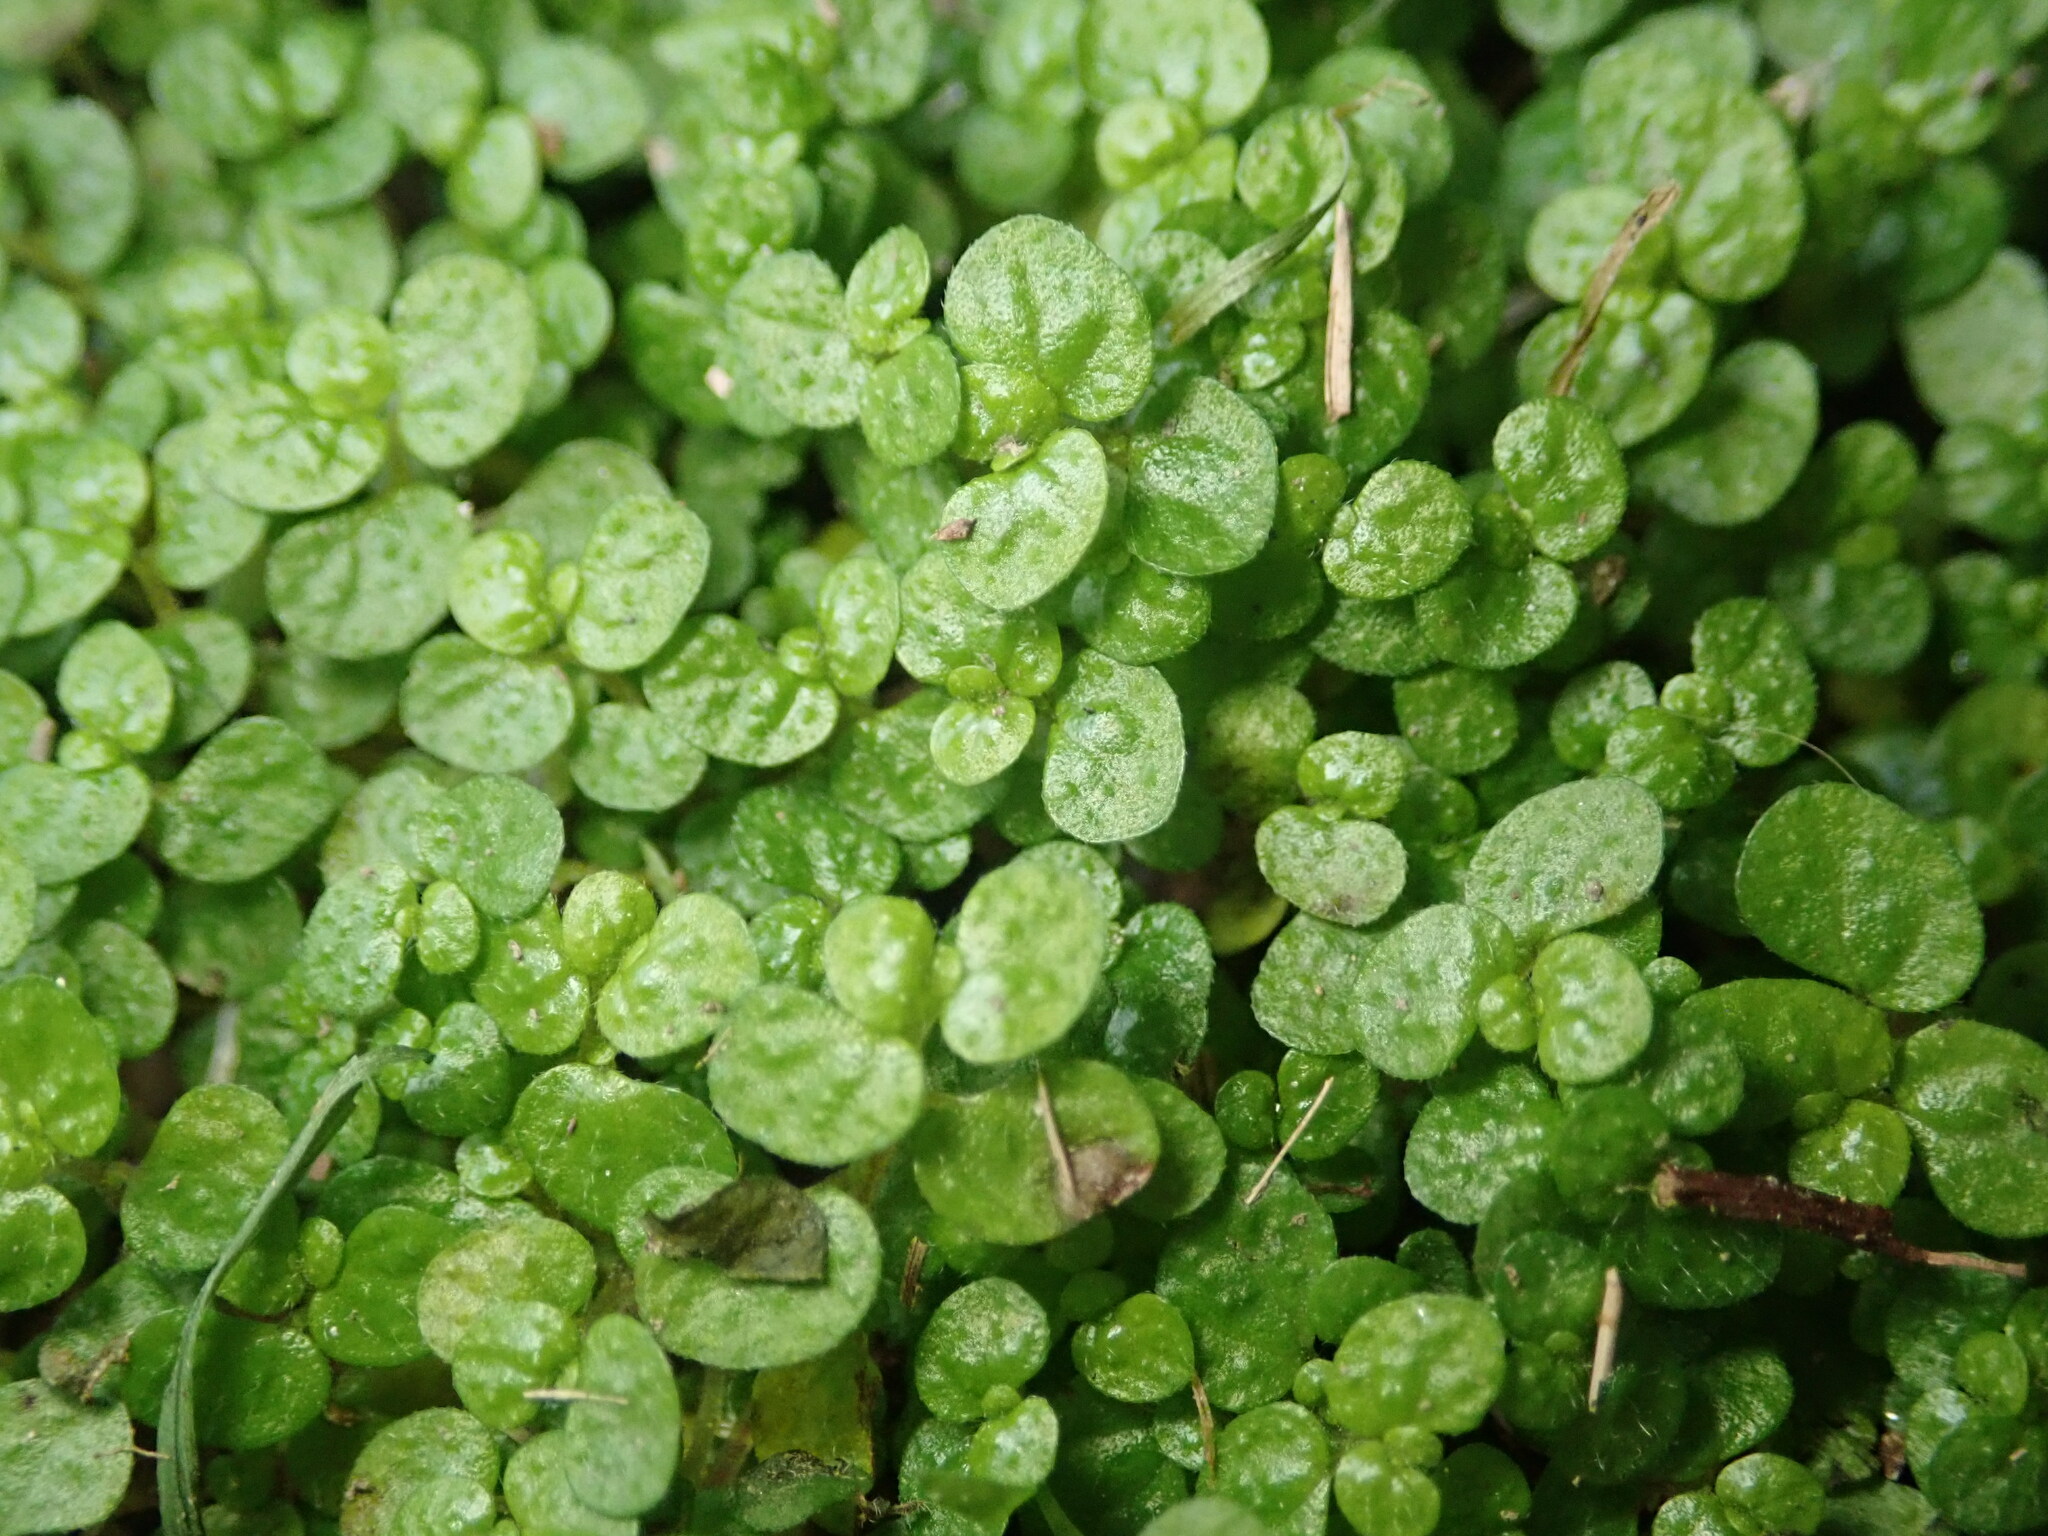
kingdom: Plantae
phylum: Tracheophyta
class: Magnoliopsida
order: Rosales
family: Urticaceae
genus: Soleirolia
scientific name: Soleirolia soleirolii
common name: Mind-your-own-business
